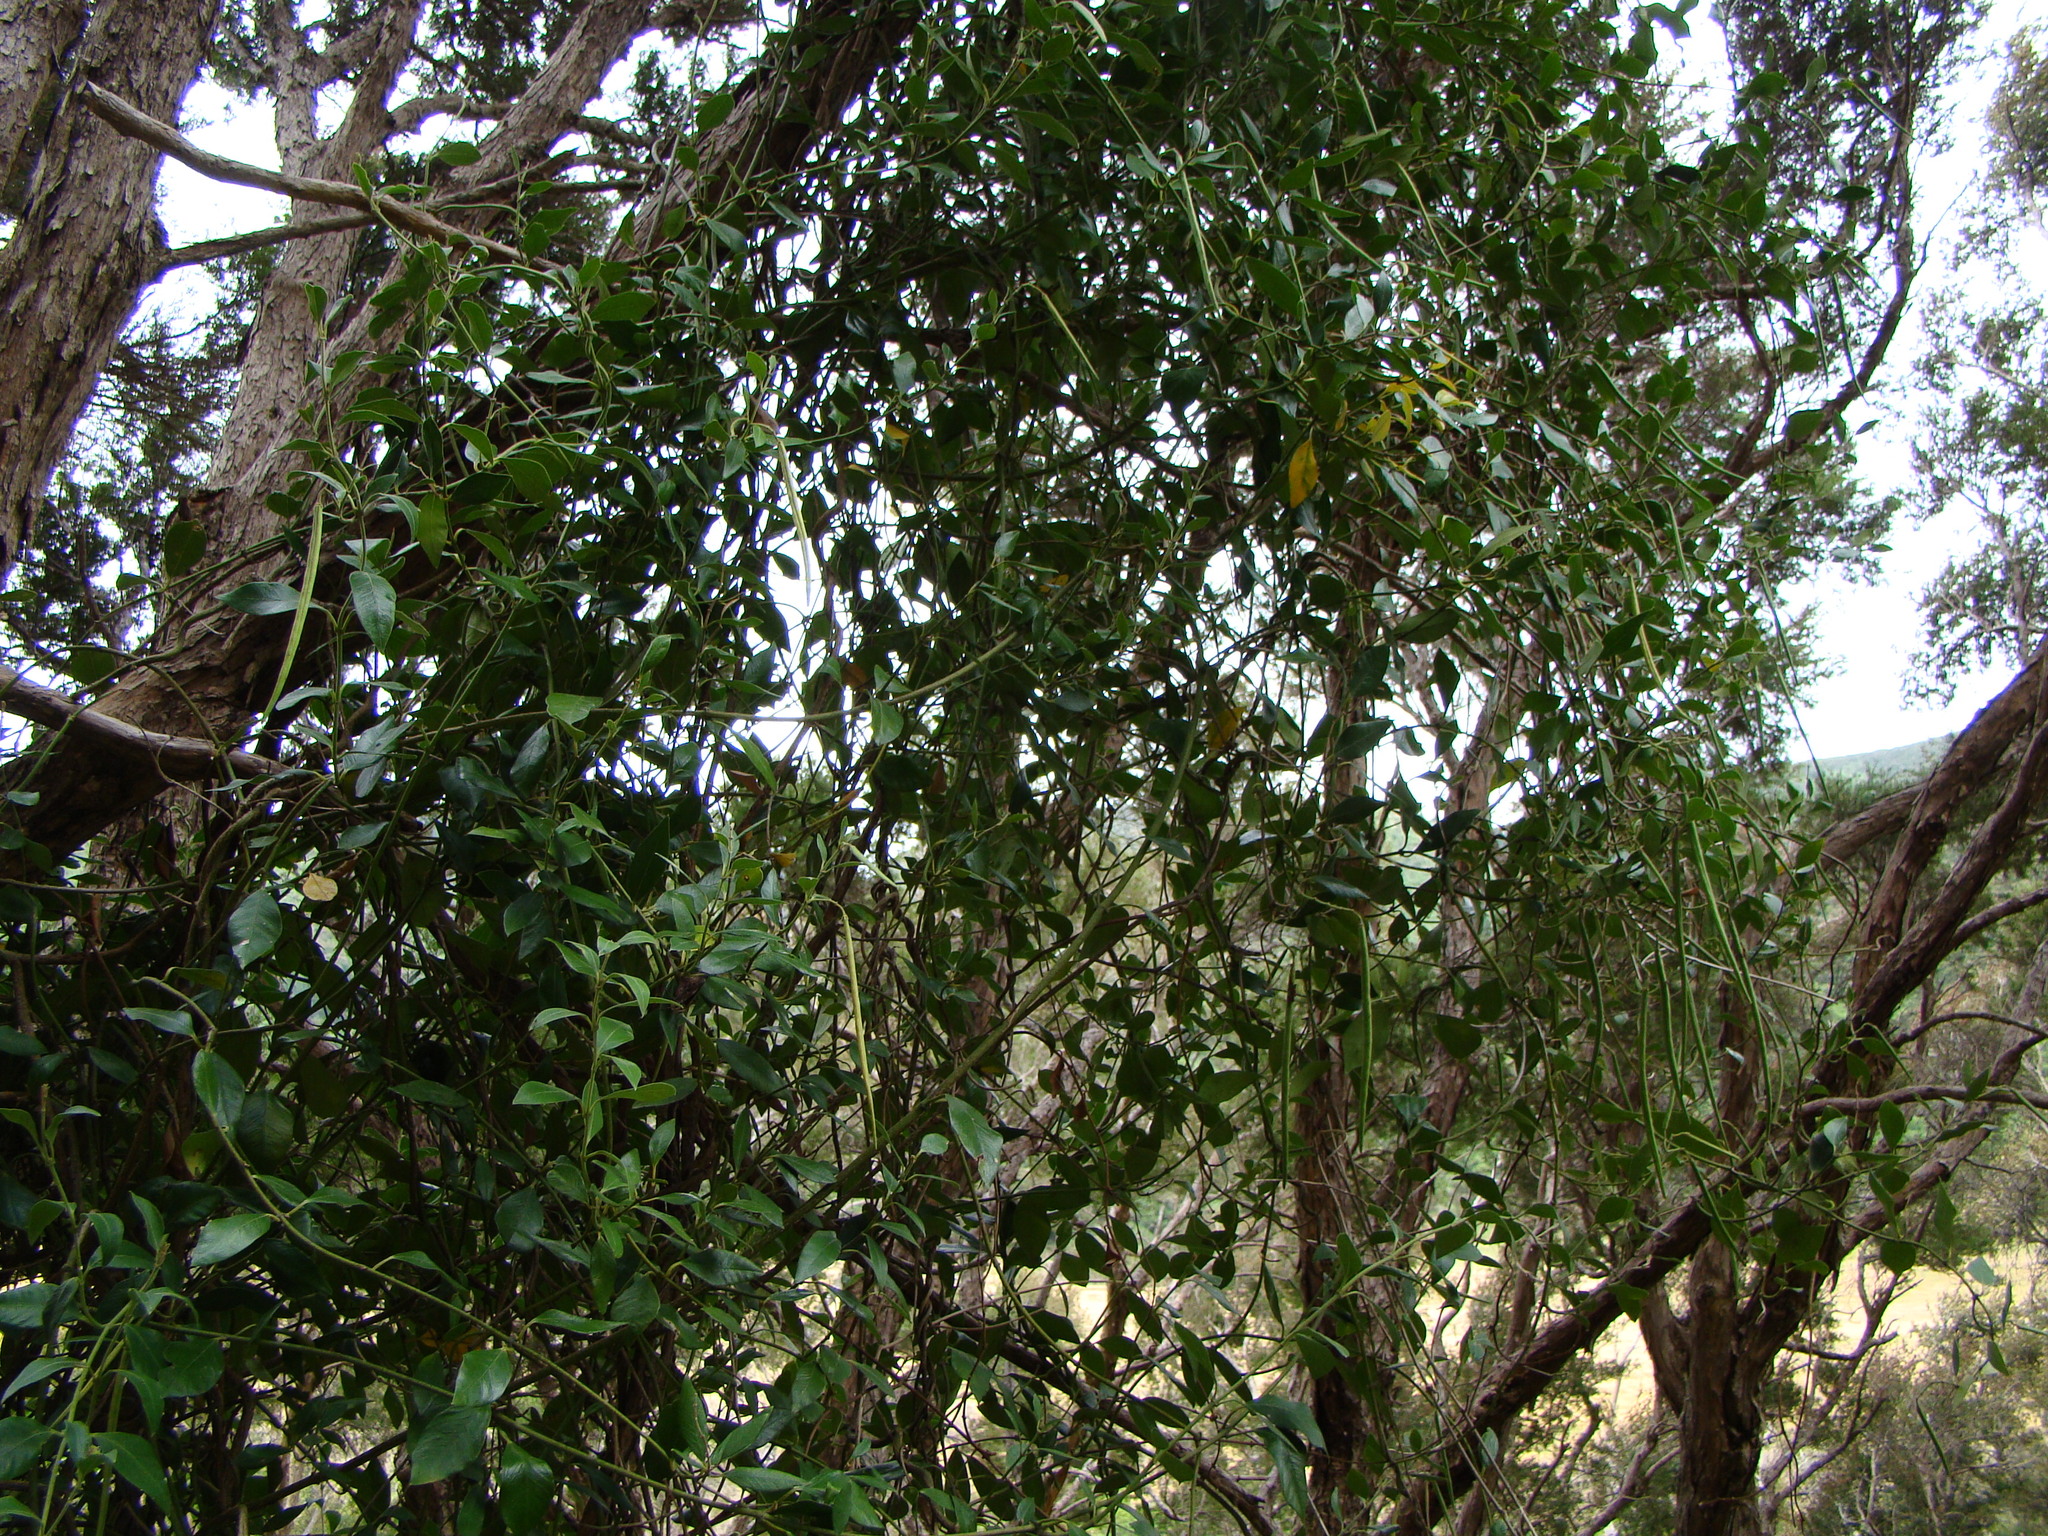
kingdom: Plantae
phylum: Tracheophyta
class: Magnoliopsida
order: Gentianales
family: Apocynaceae
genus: Parsonsia
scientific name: Parsonsia heterophylla
